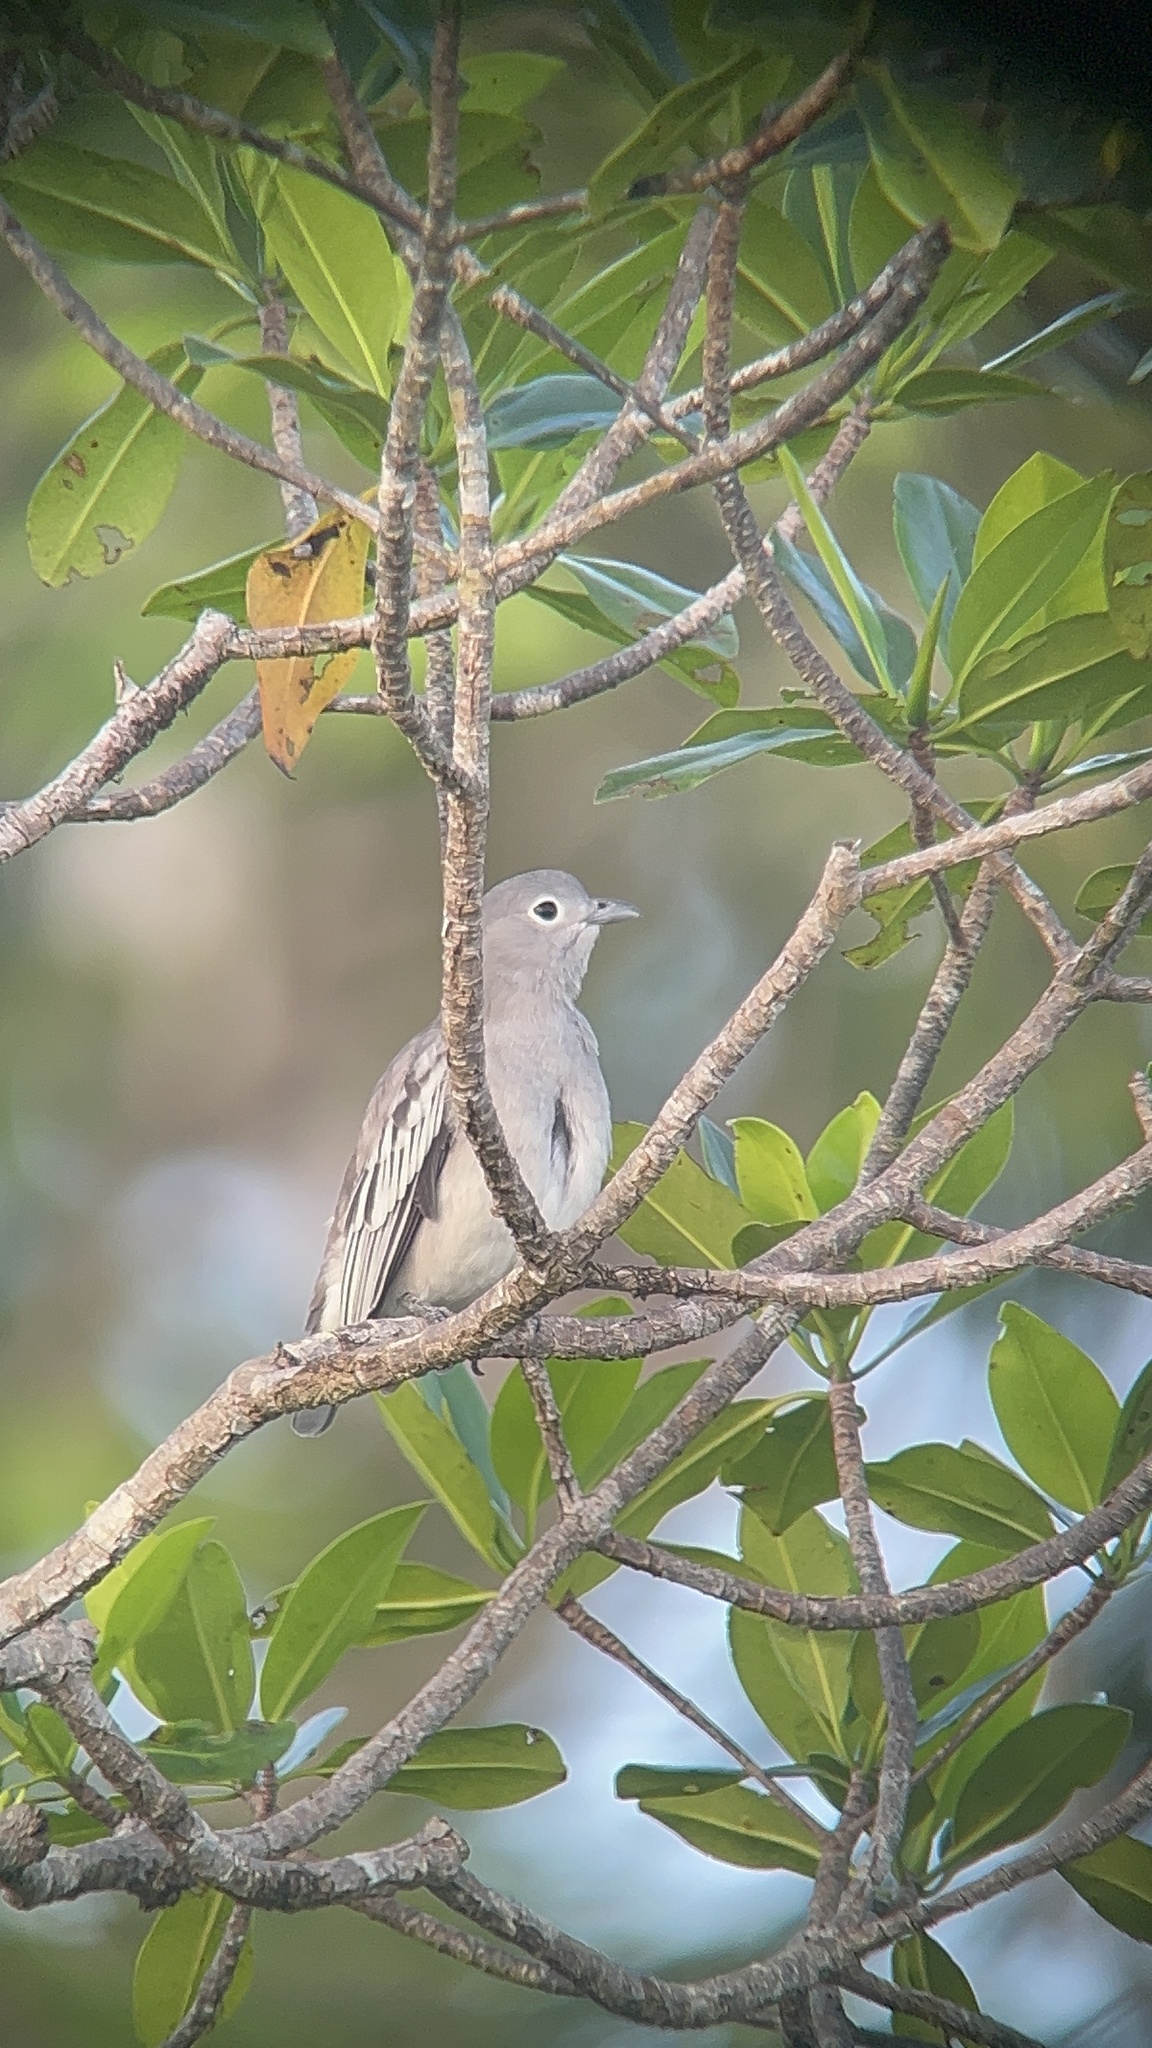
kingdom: Animalia
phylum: Chordata
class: Aves
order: Passeriformes
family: Cotingidae
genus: Carpodectes
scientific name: Carpodectes nitidus
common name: Snowy cotinga
